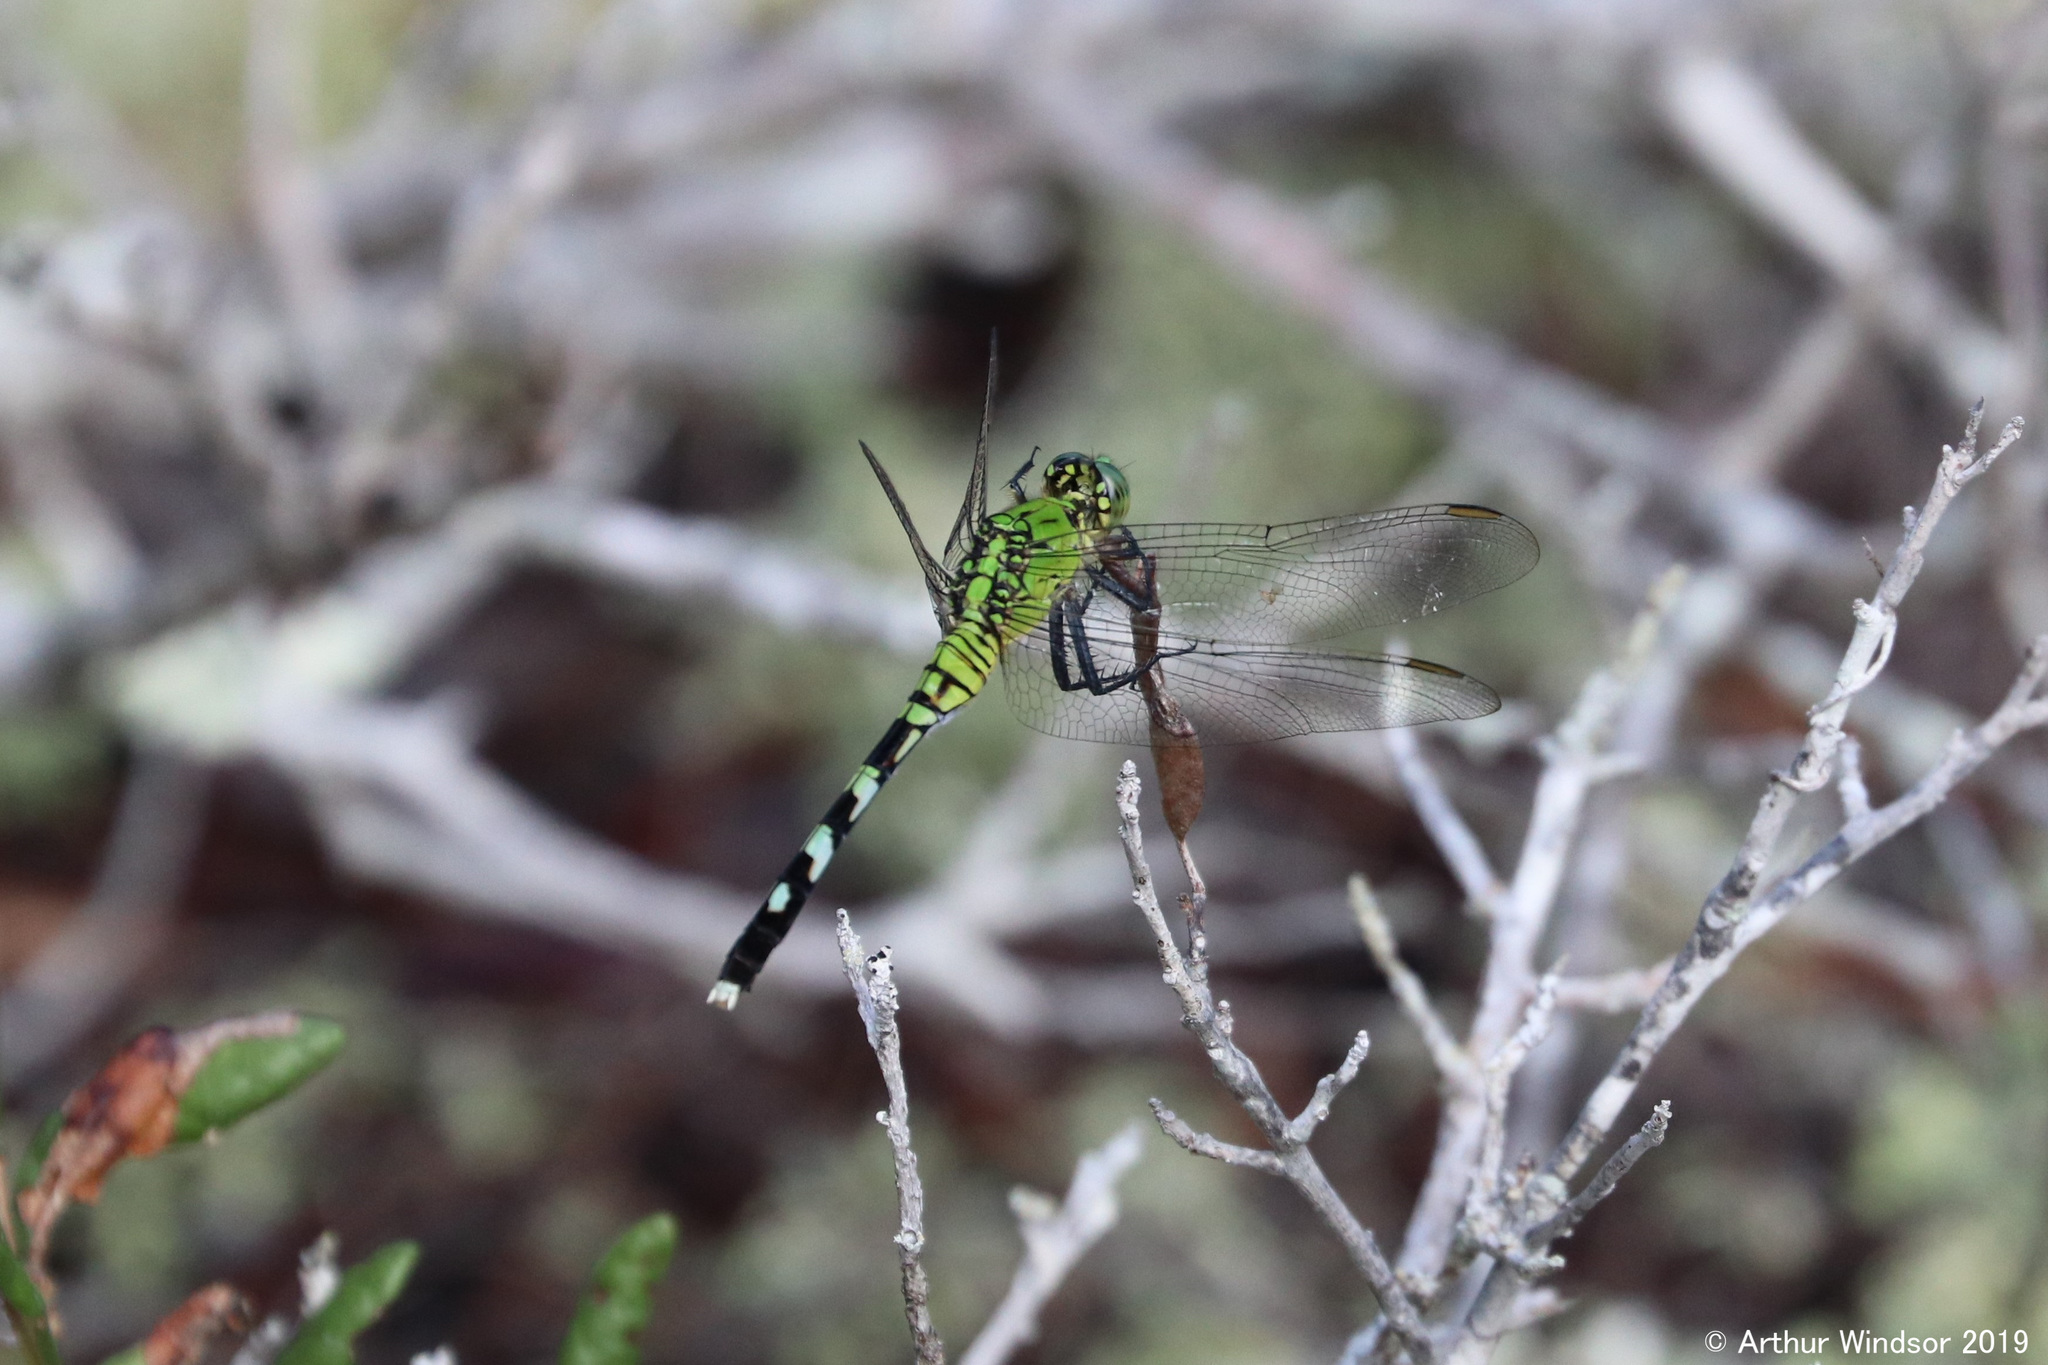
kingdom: Animalia
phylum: Arthropoda
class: Insecta
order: Odonata
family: Libellulidae
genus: Erythemis
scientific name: Erythemis simplicicollis
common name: Eastern pondhawk
